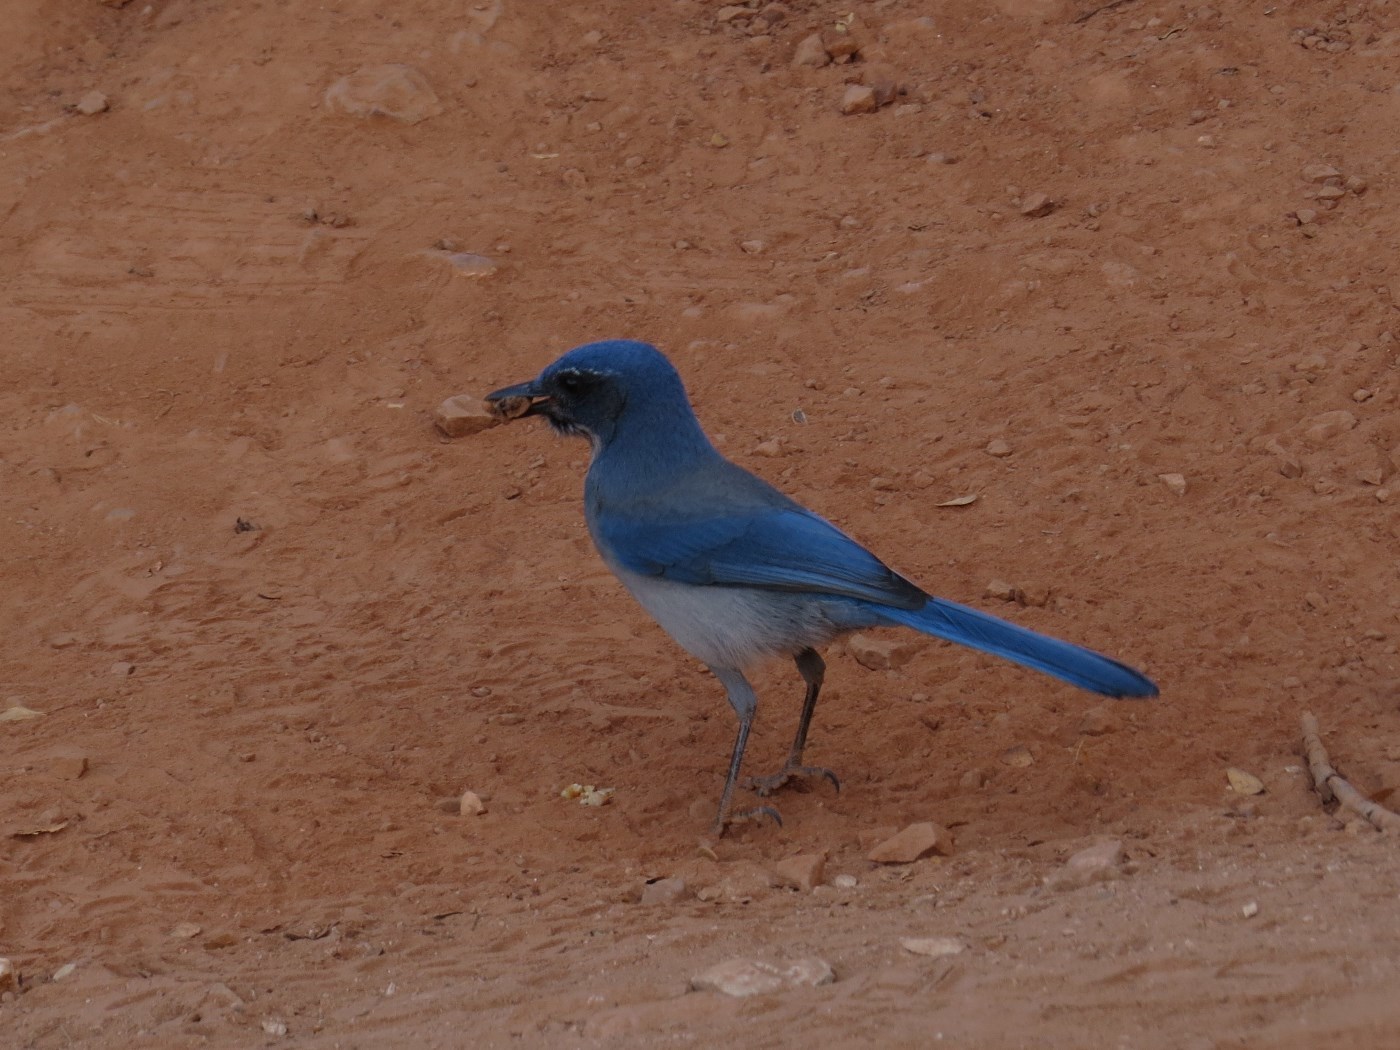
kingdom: Animalia
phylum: Chordata
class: Aves
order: Passeriformes
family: Corvidae
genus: Aphelocoma
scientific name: Aphelocoma woodhouseii
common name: Woodhouse's scrub-jay
